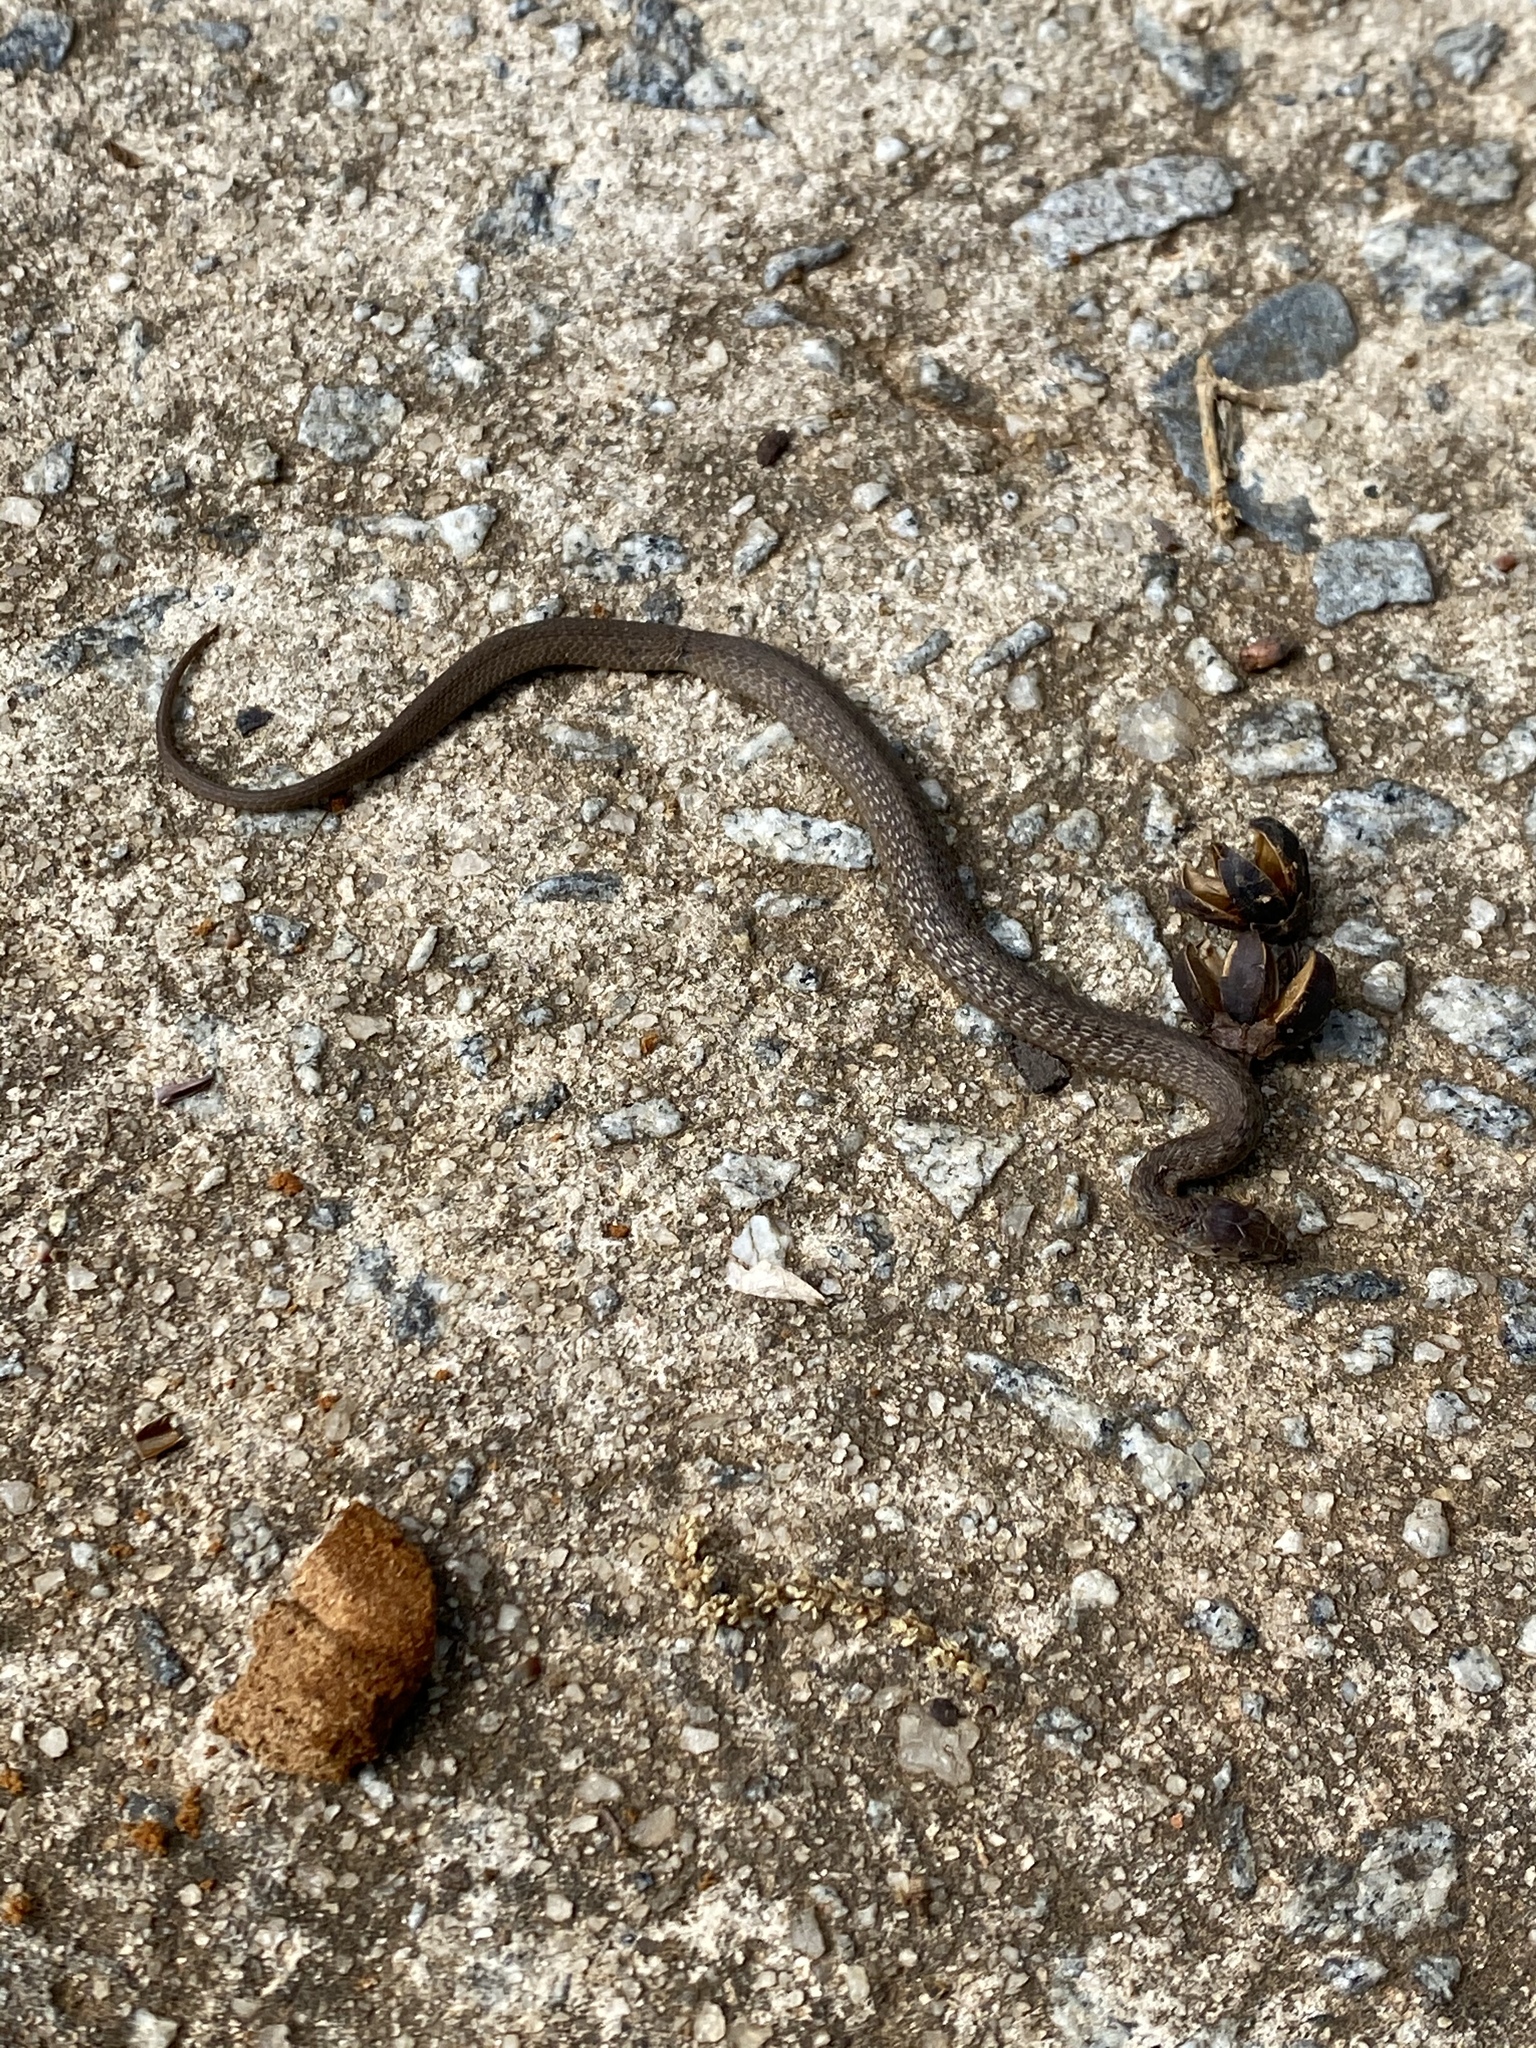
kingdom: Animalia
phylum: Chordata
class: Squamata
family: Colubridae
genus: Storeria
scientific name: Storeria dekayi
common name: (dekay’s) brown snake
